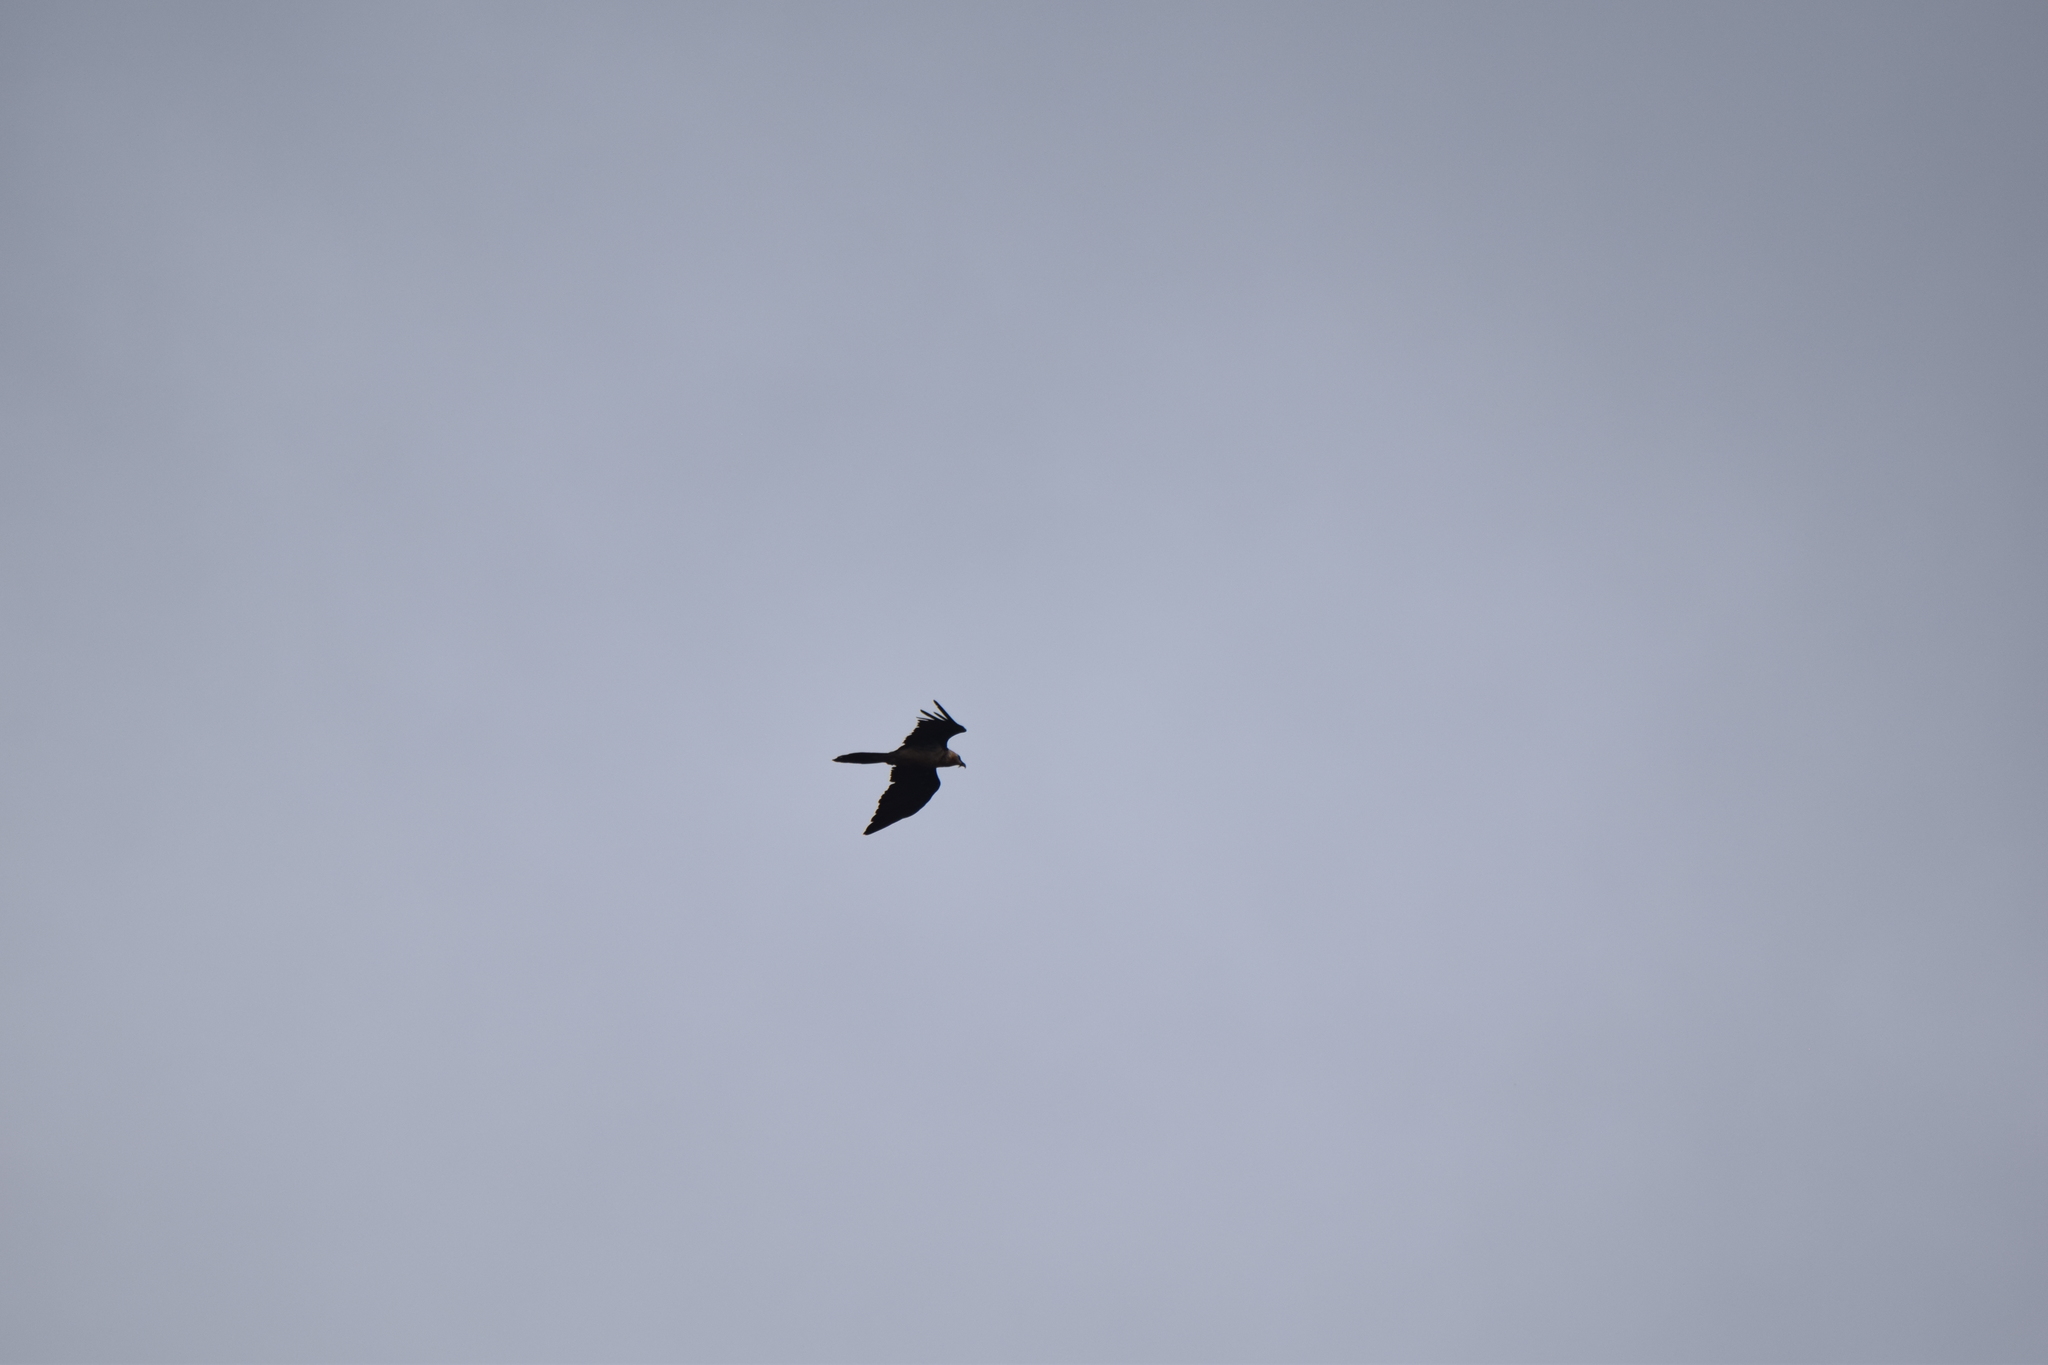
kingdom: Animalia
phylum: Chordata
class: Aves
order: Accipitriformes
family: Accipitridae
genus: Gypaetus
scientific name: Gypaetus barbatus
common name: Bearded vulture
